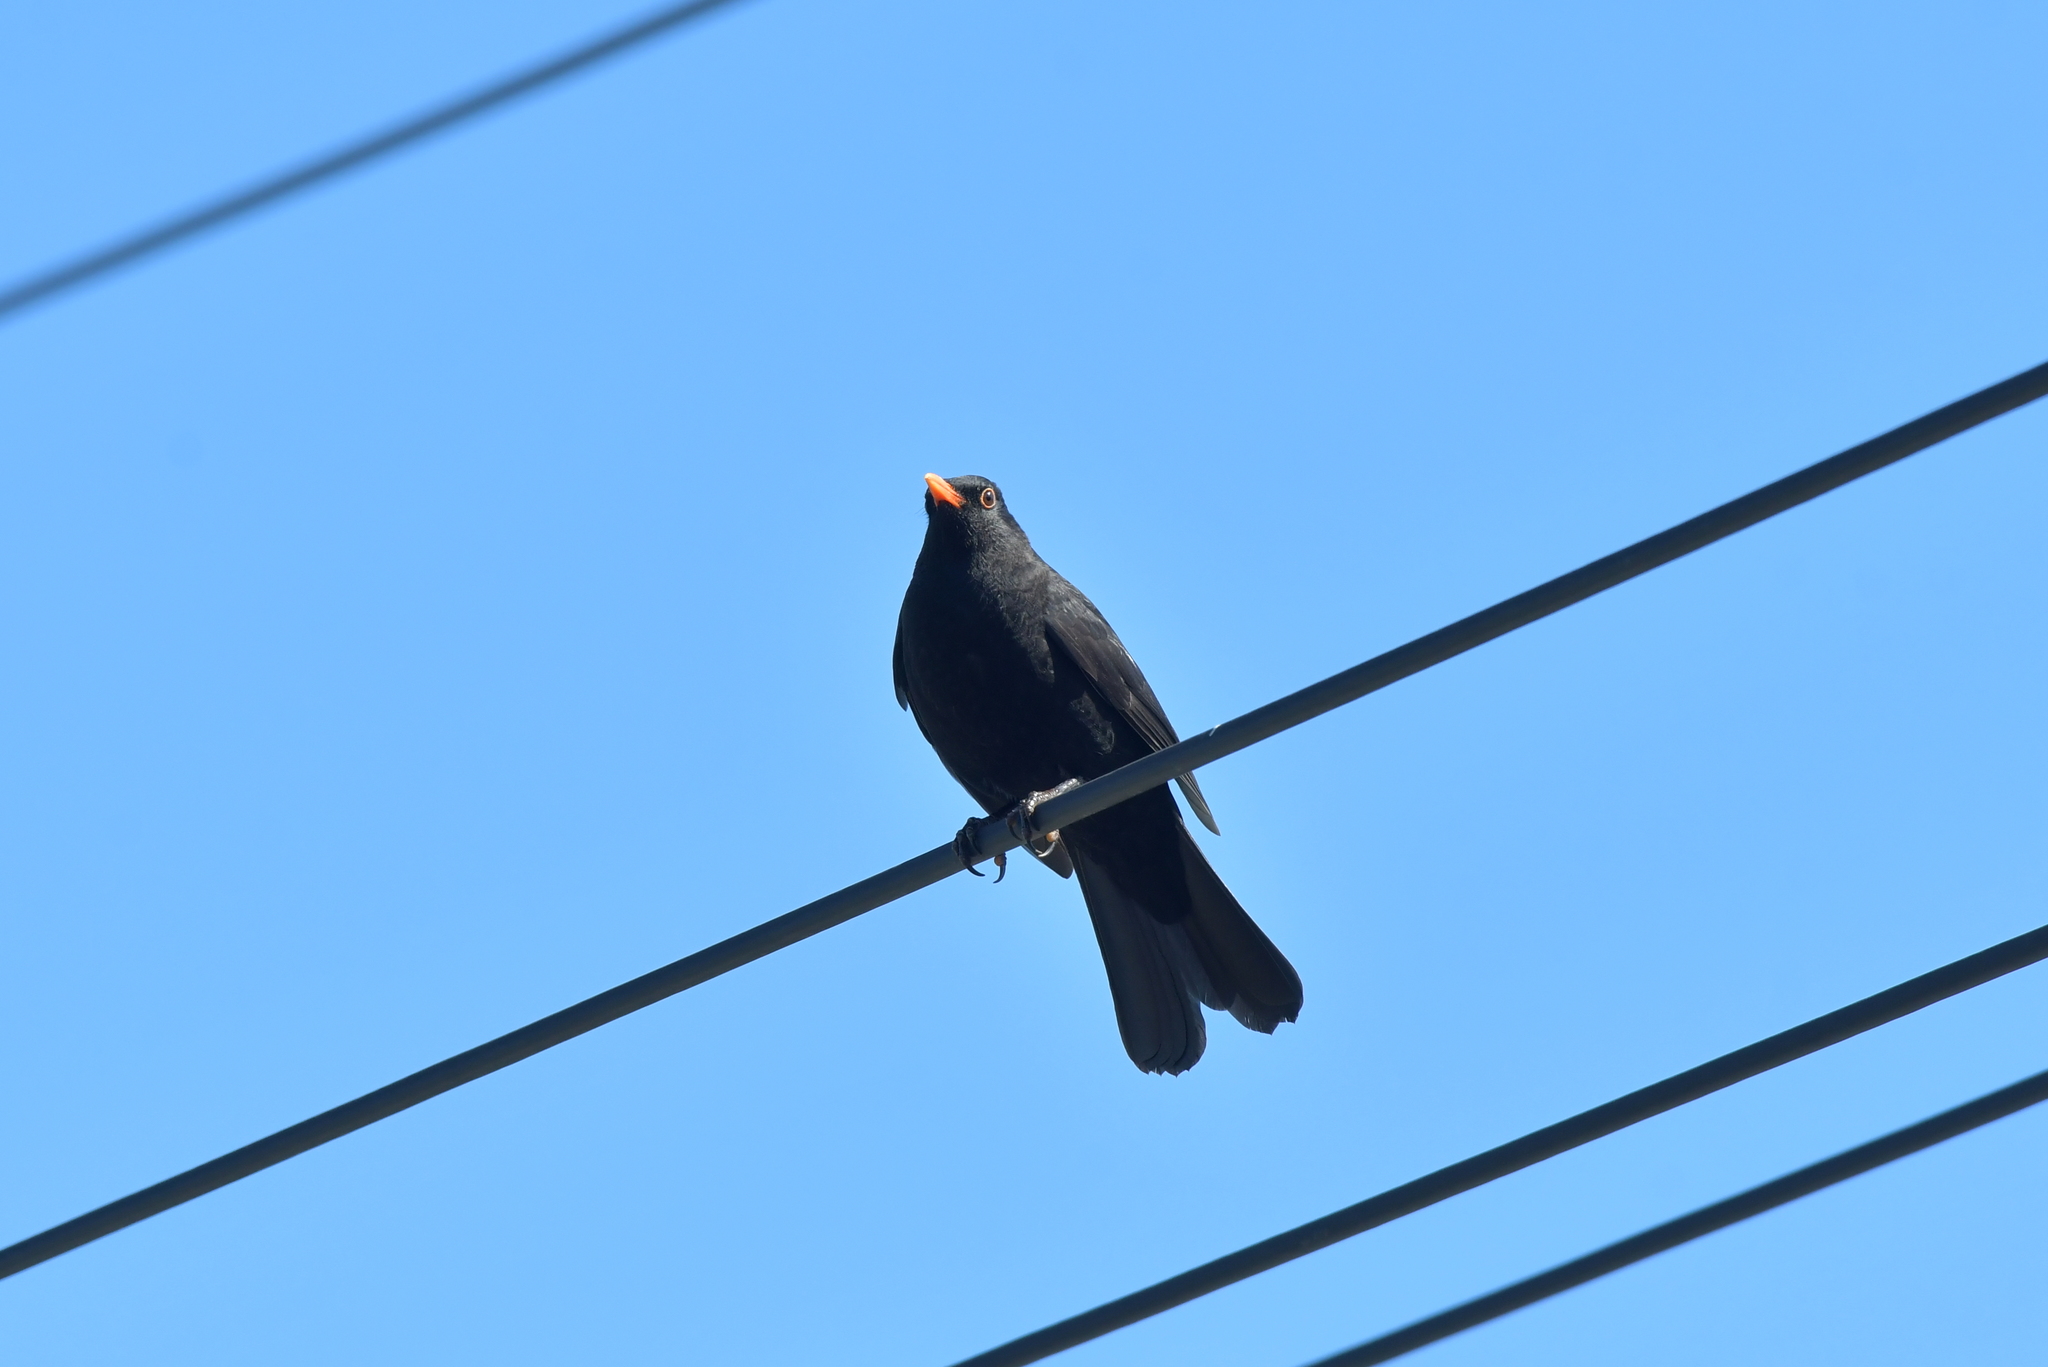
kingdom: Animalia
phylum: Chordata
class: Aves
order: Passeriformes
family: Turdidae
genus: Turdus
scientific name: Turdus merula
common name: Common blackbird
